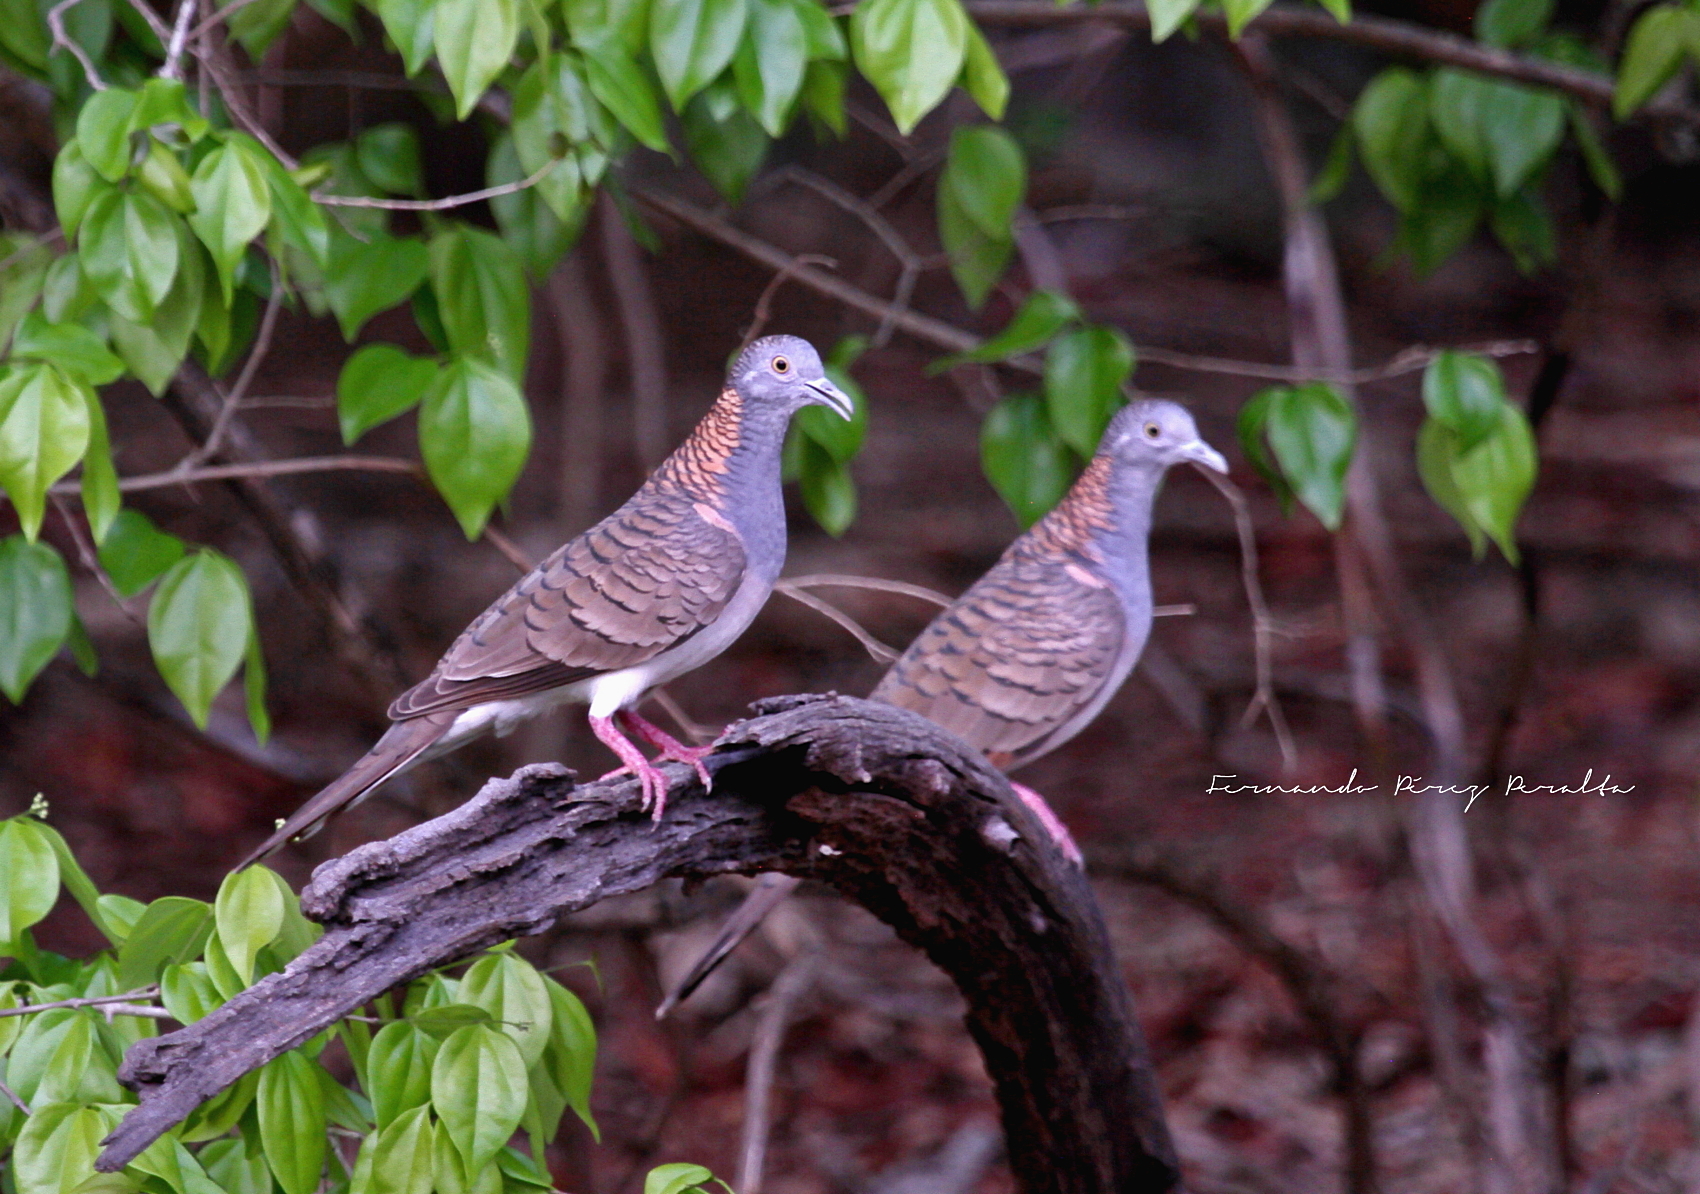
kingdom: Animalia
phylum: Chordata
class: Aves
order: Columbiformes
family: Columbidae
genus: Geopelia
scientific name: Geopelia humeralis
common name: Bar-shouldered dove
